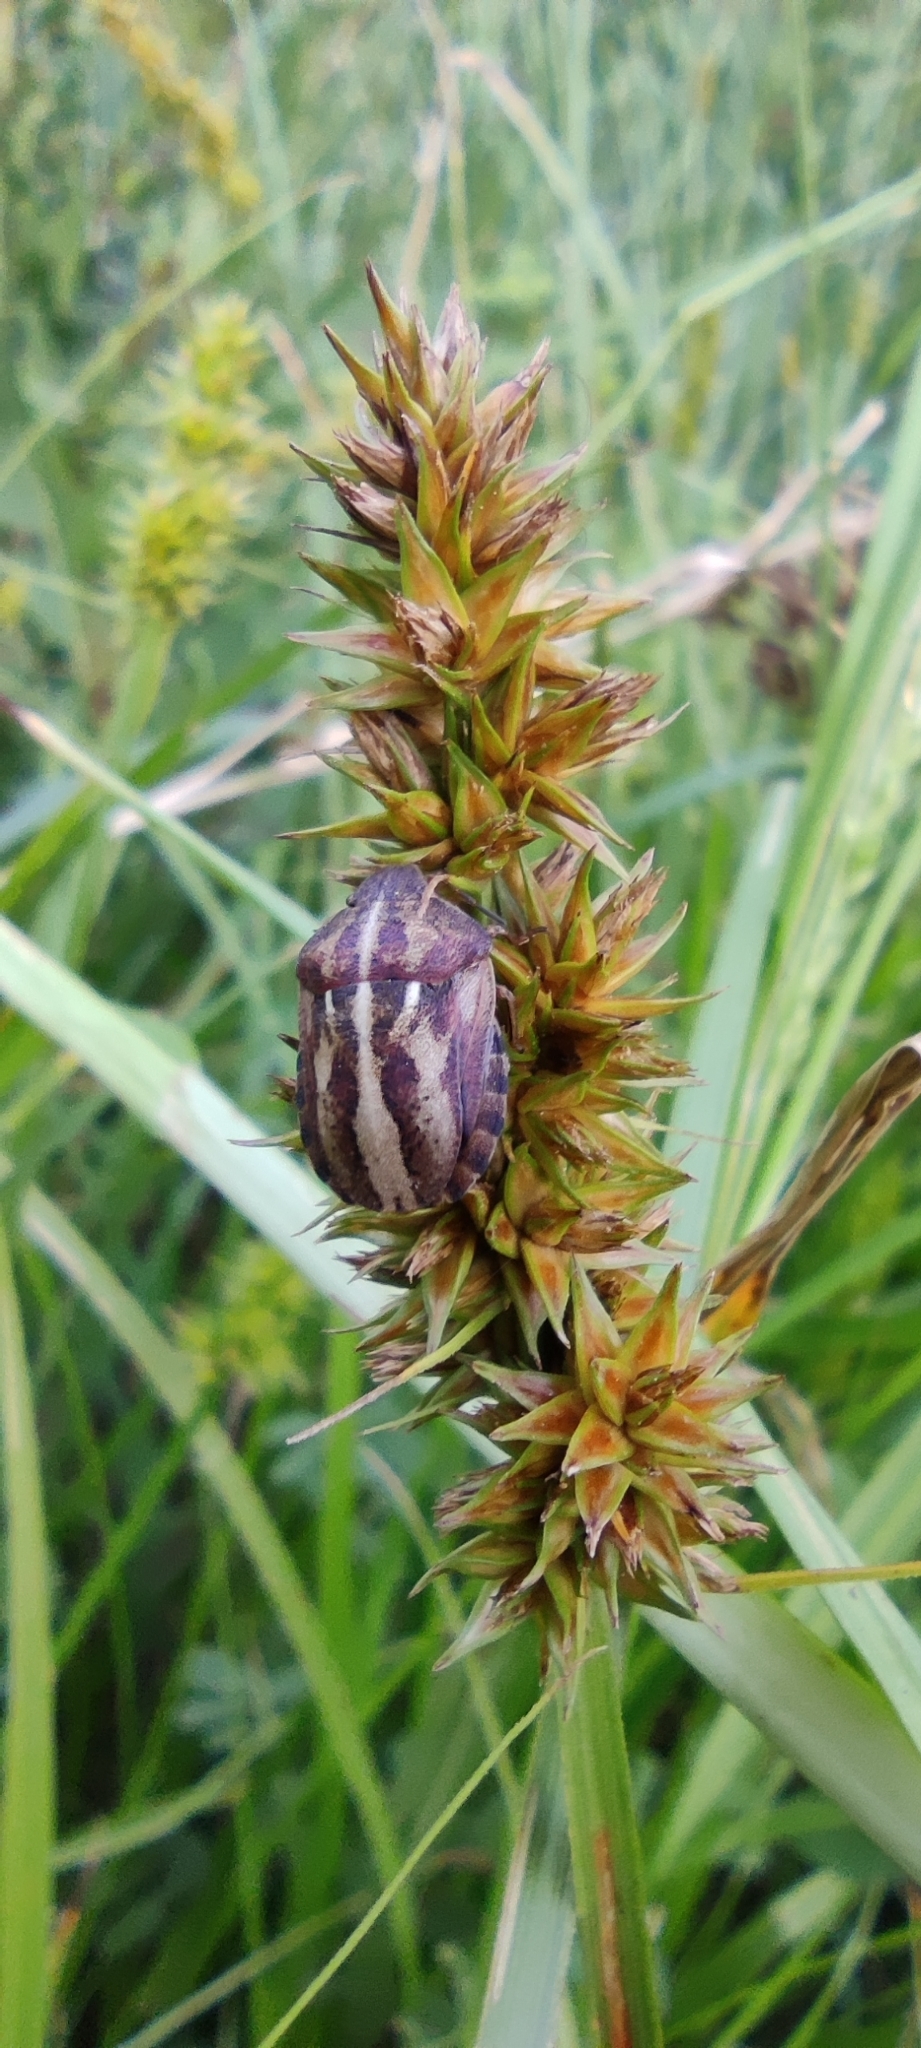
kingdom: Animalia
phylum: Arthropoda
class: Insecta
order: Hemiptera
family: Scutelleridae
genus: Eurygaster
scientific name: Eurygaster testudinaria
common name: Tortoise bug
